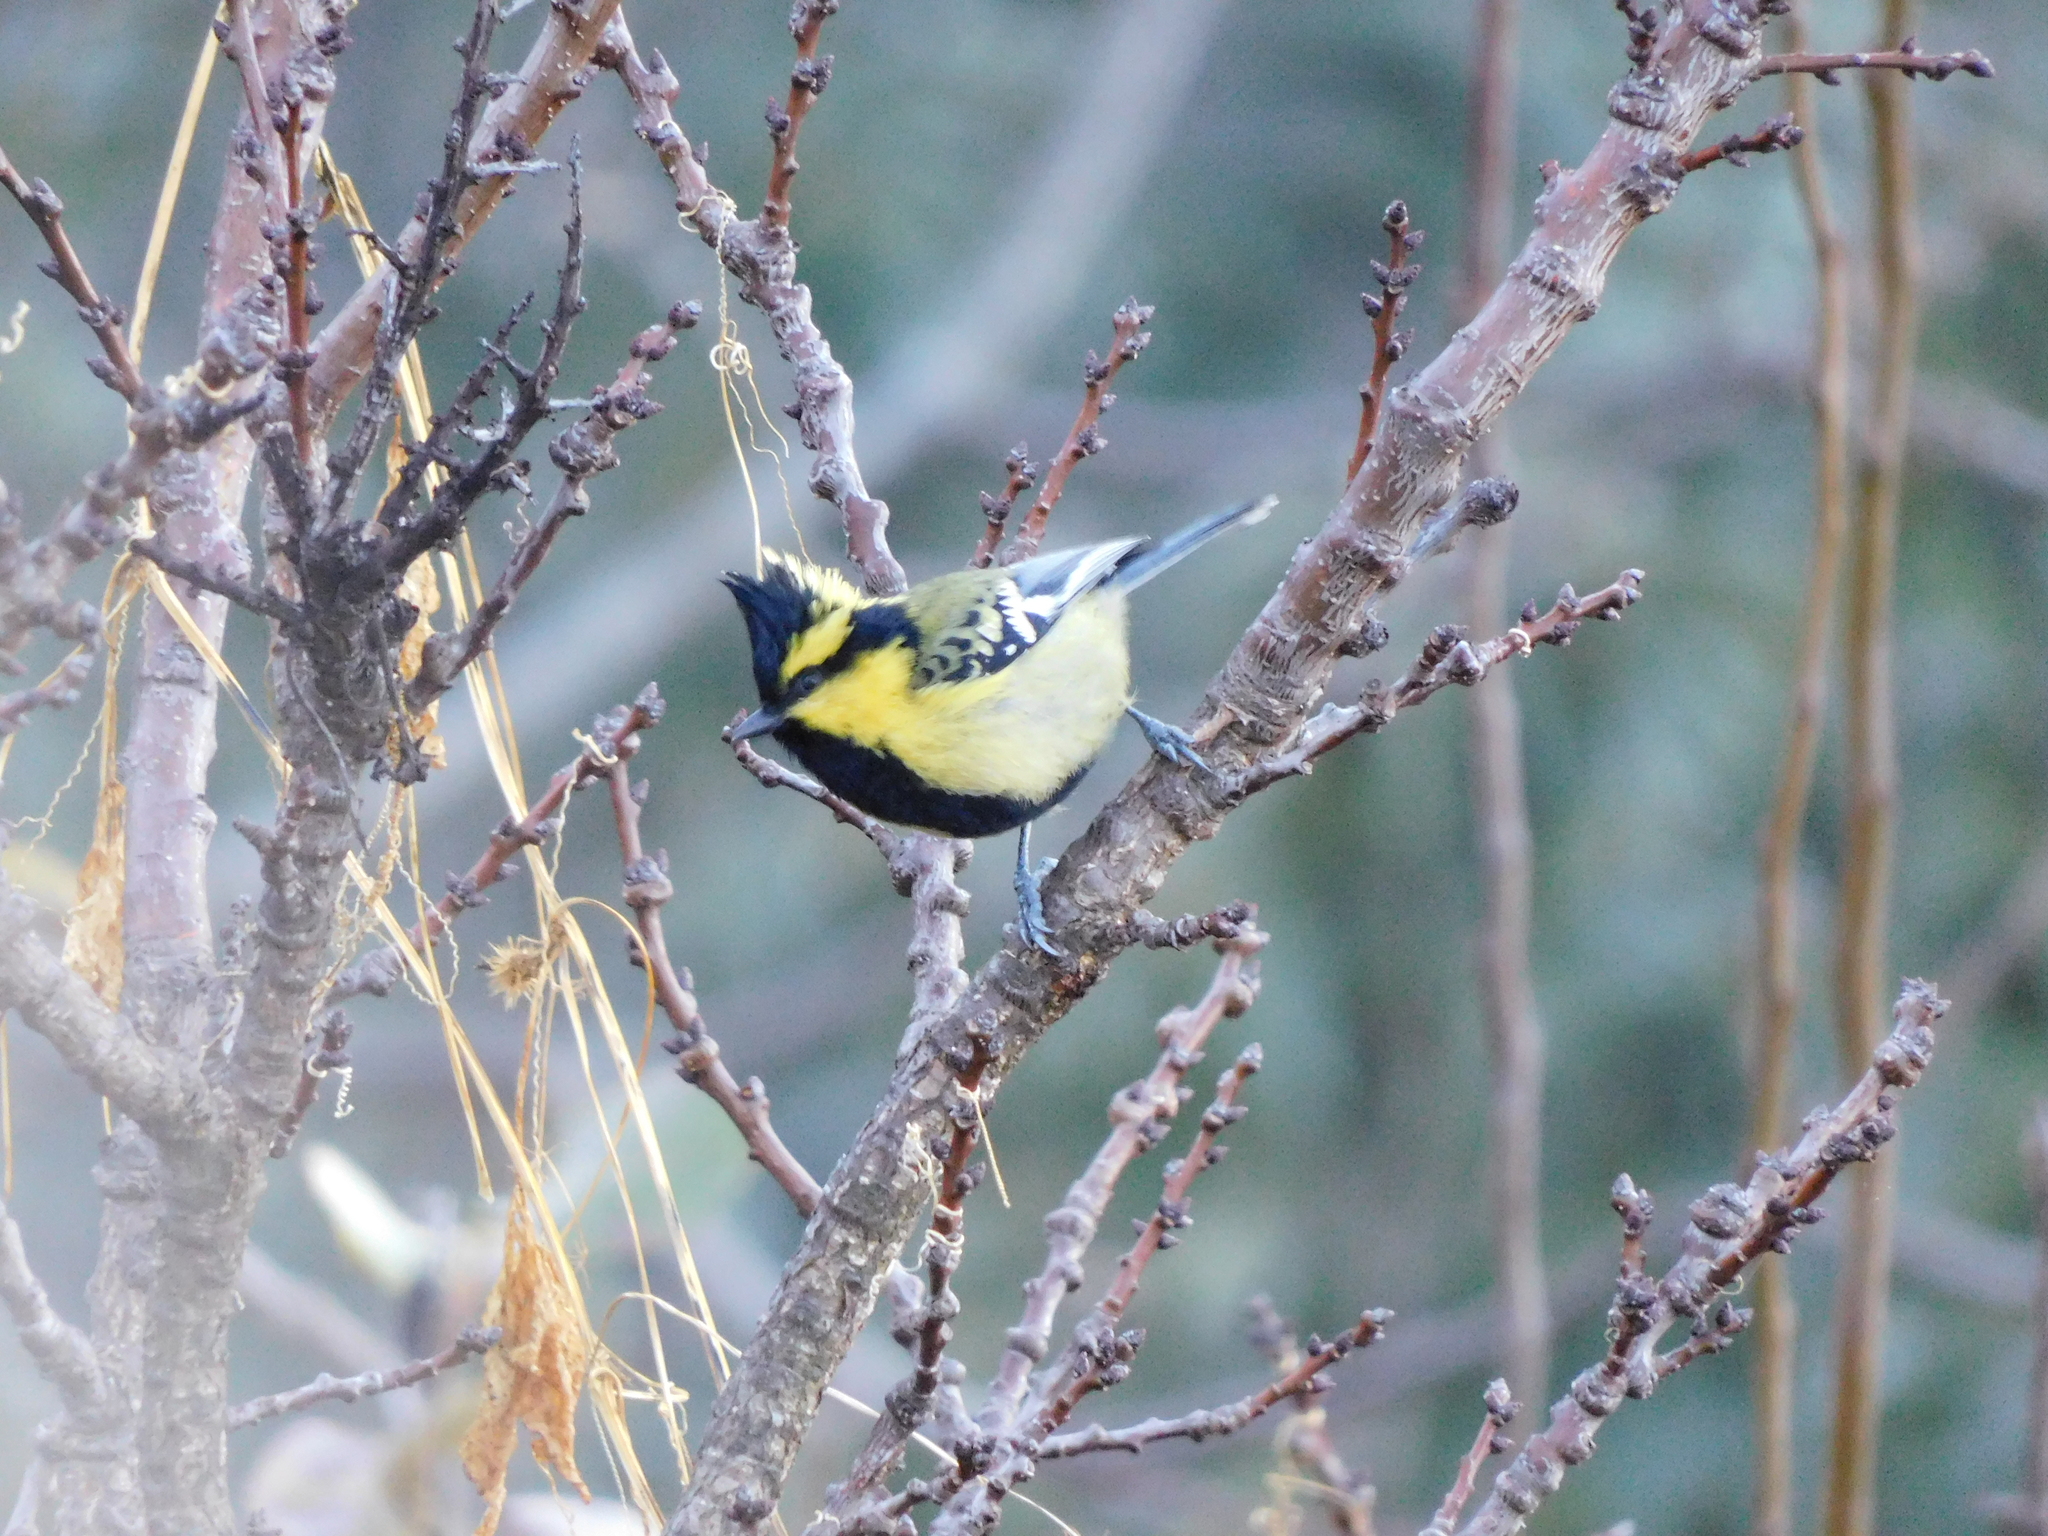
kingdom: Animalia
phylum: Chordata
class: Aves
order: Passeriformes
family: Paridae
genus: Parus
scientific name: Parus xanthogenys
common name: Black-lored tit
